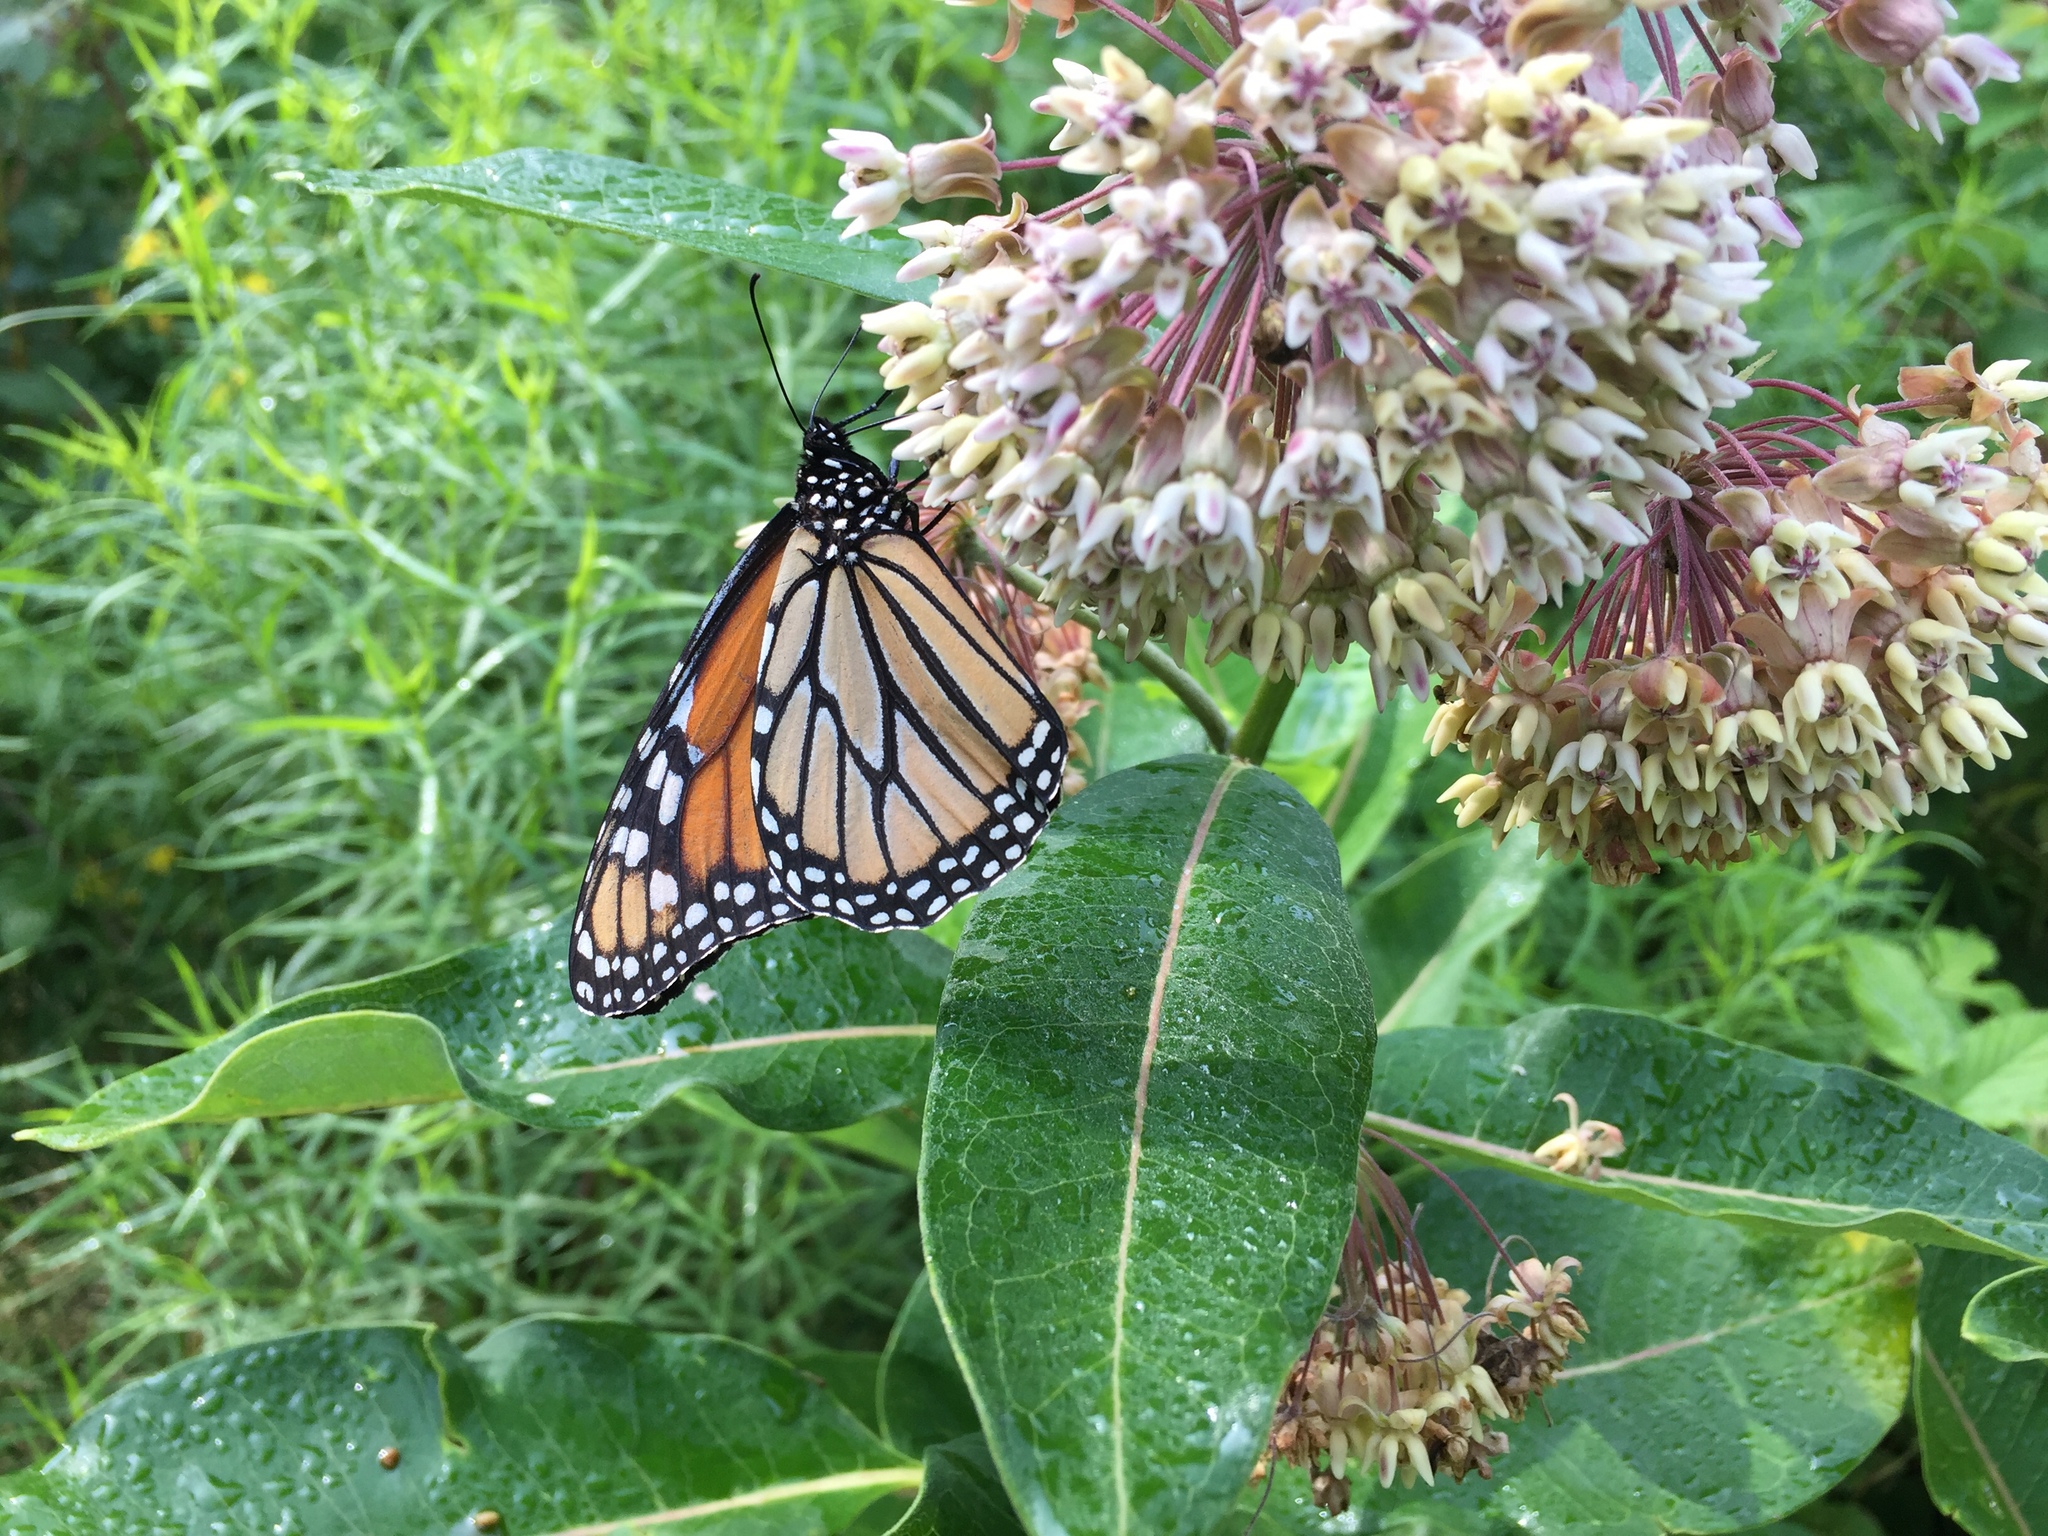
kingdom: Animalia
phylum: Arthropoda
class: Insecta
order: Lepidoptera
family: Nymphalidae
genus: Danaus
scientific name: Danaus plexippus
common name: Monarch
